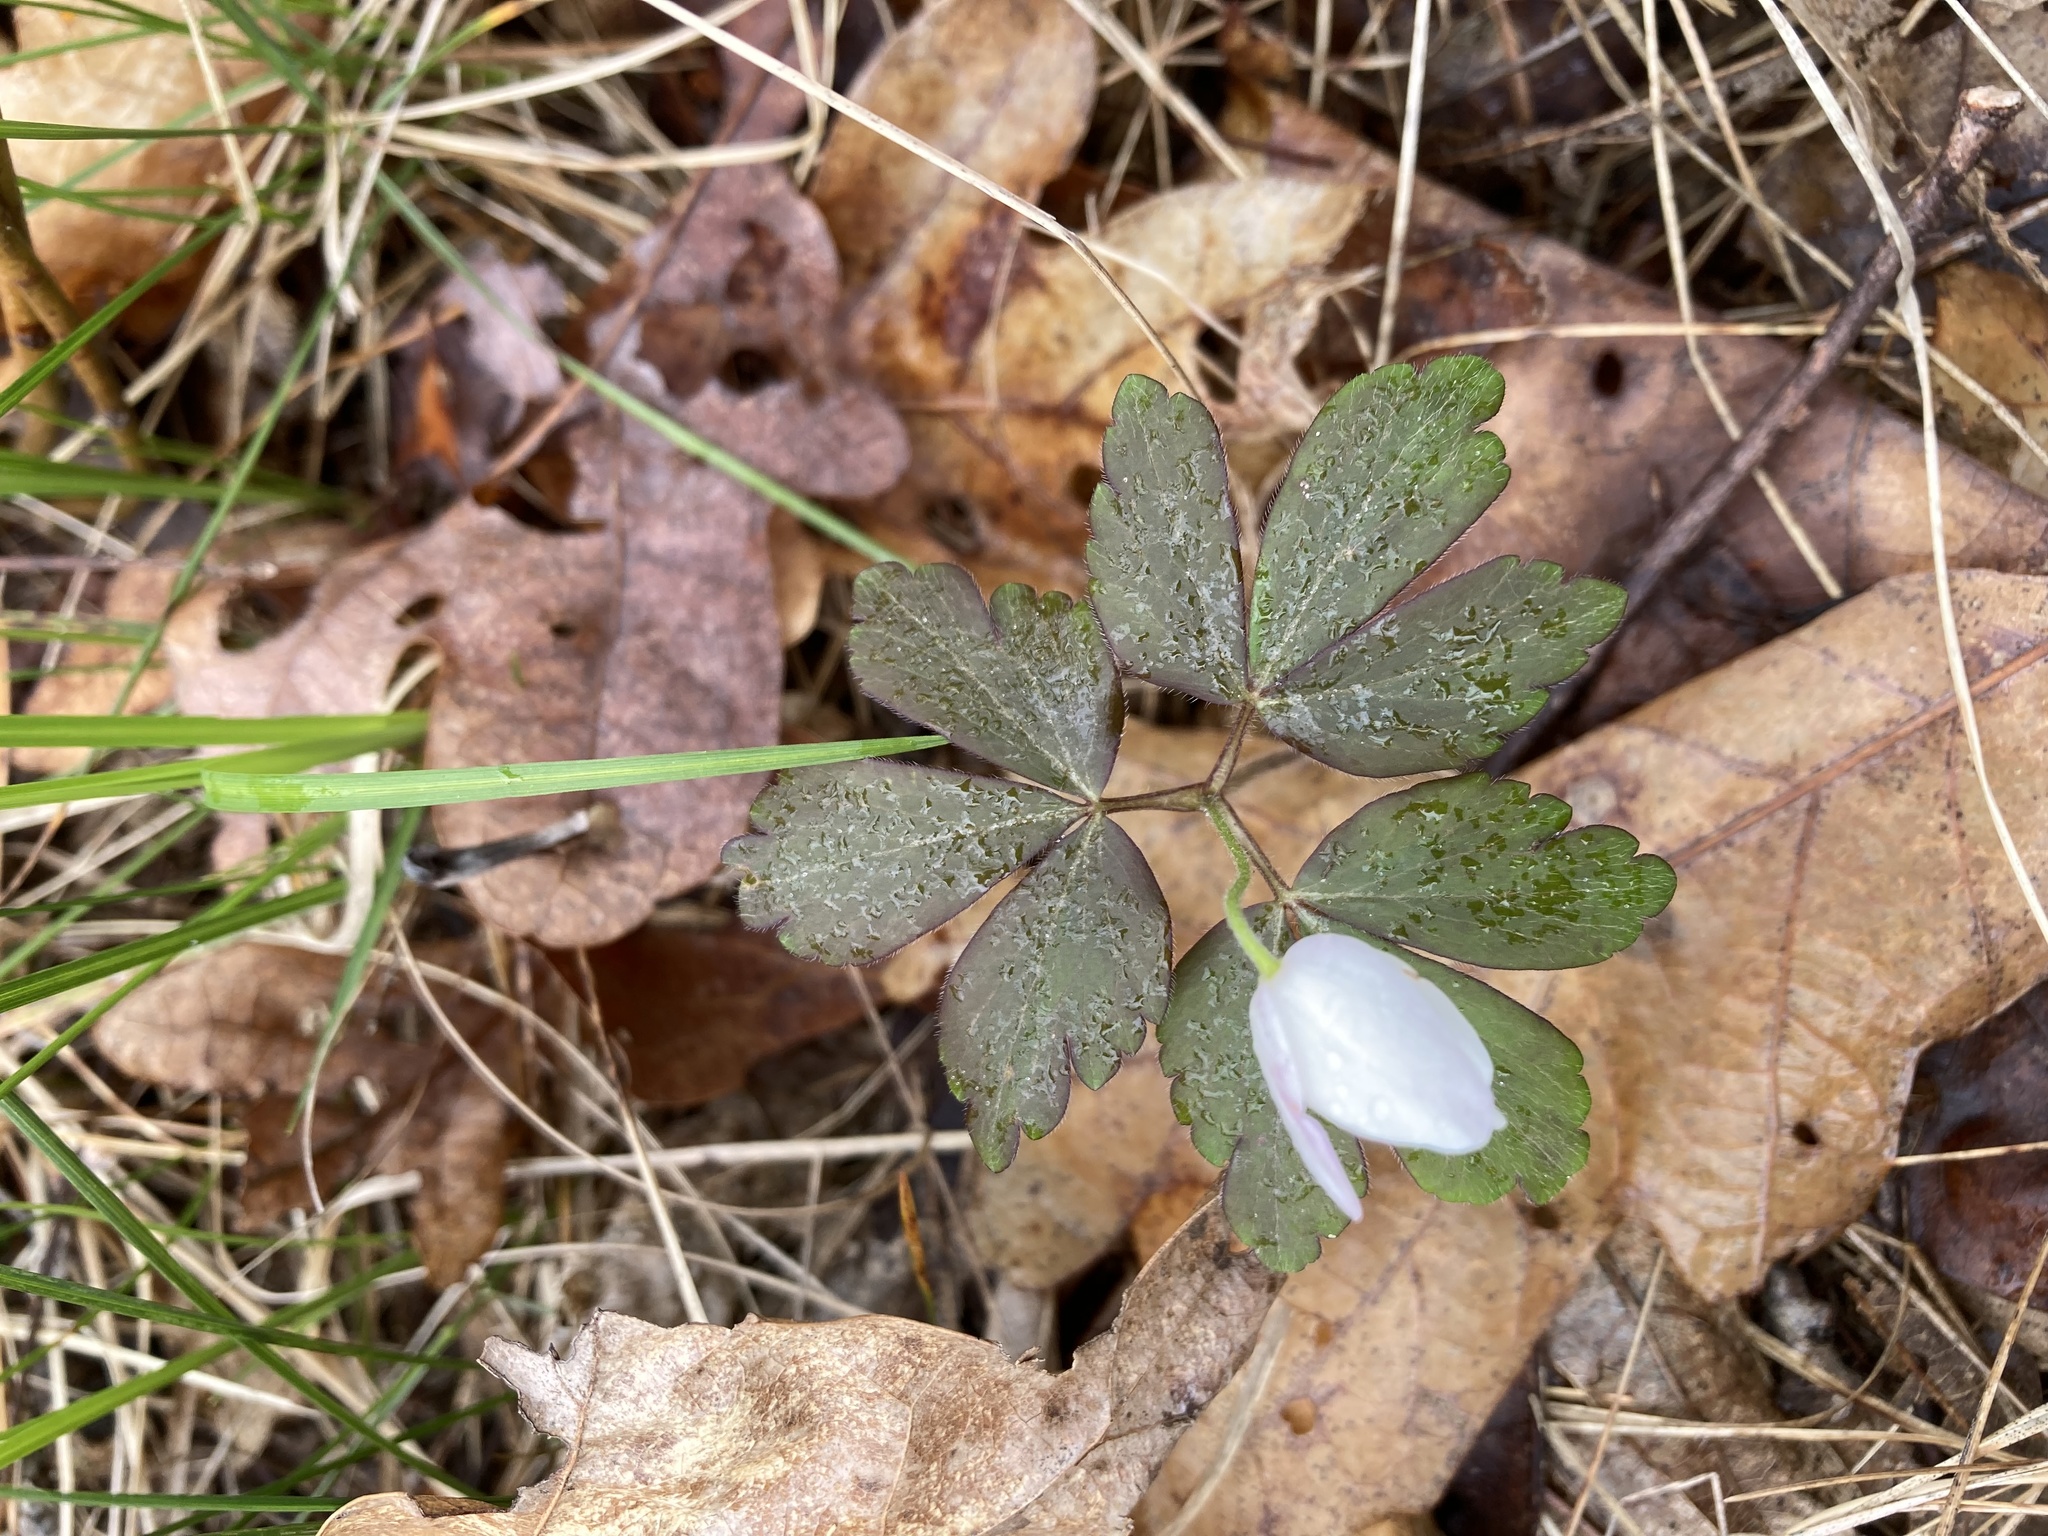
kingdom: Plantae
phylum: Tracheophyta
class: Magnoliopsida
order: Ranunculales
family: Ranunculaceae
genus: Anemone
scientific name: Anemone quinquefolia
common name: Wood anemone
